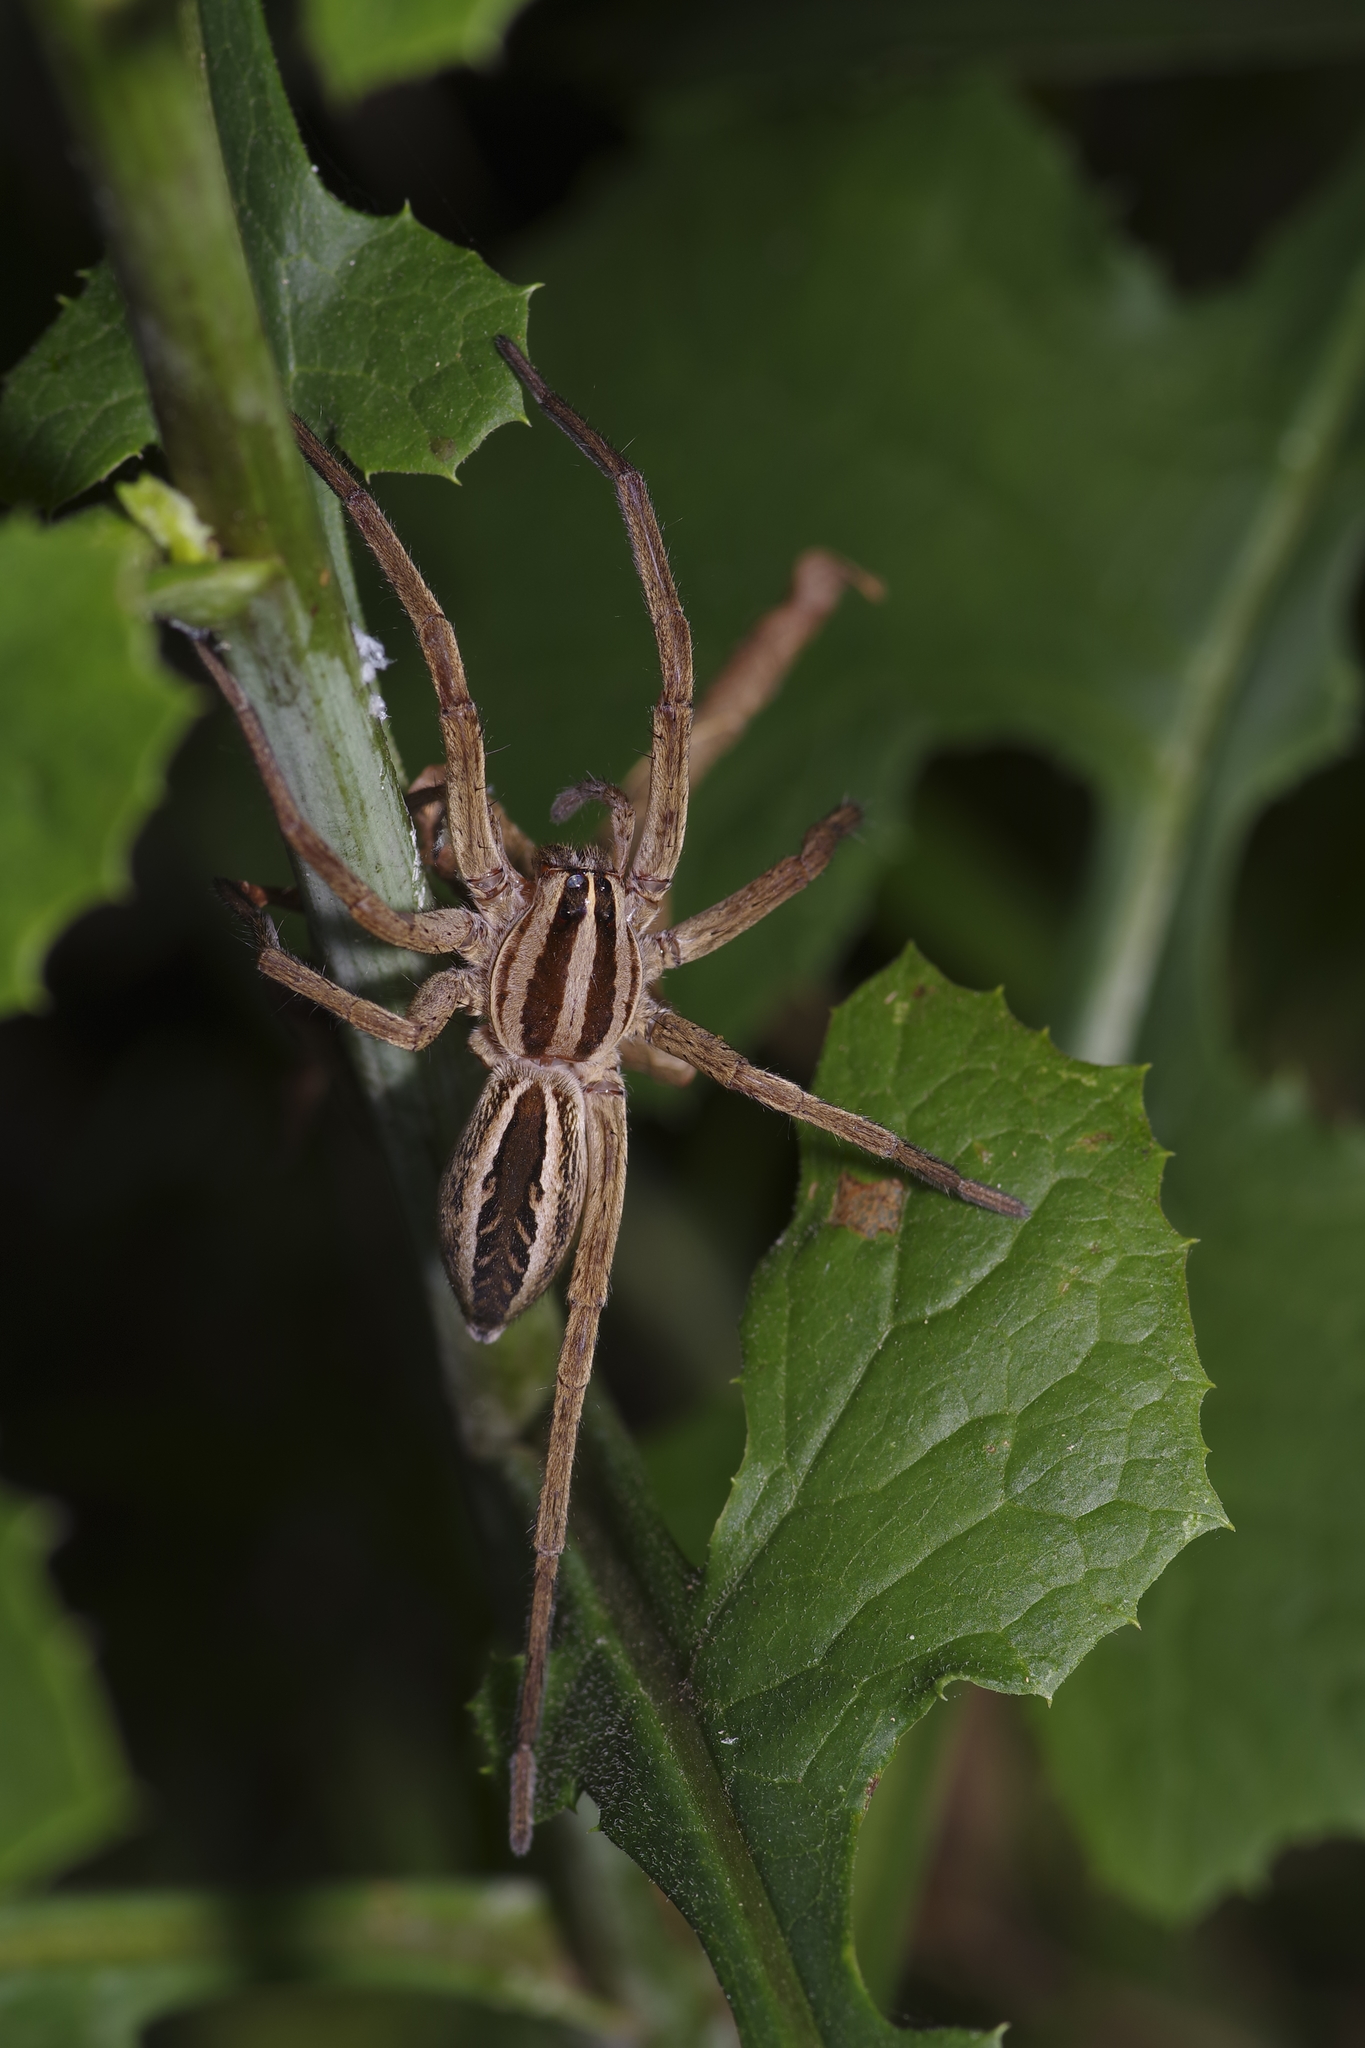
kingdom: Animalia
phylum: Arthropoda
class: Arachnida
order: Araneae
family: Lycosidae
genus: Rabidosa
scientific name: Rabidosa rabida
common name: Rabid wolf spider
